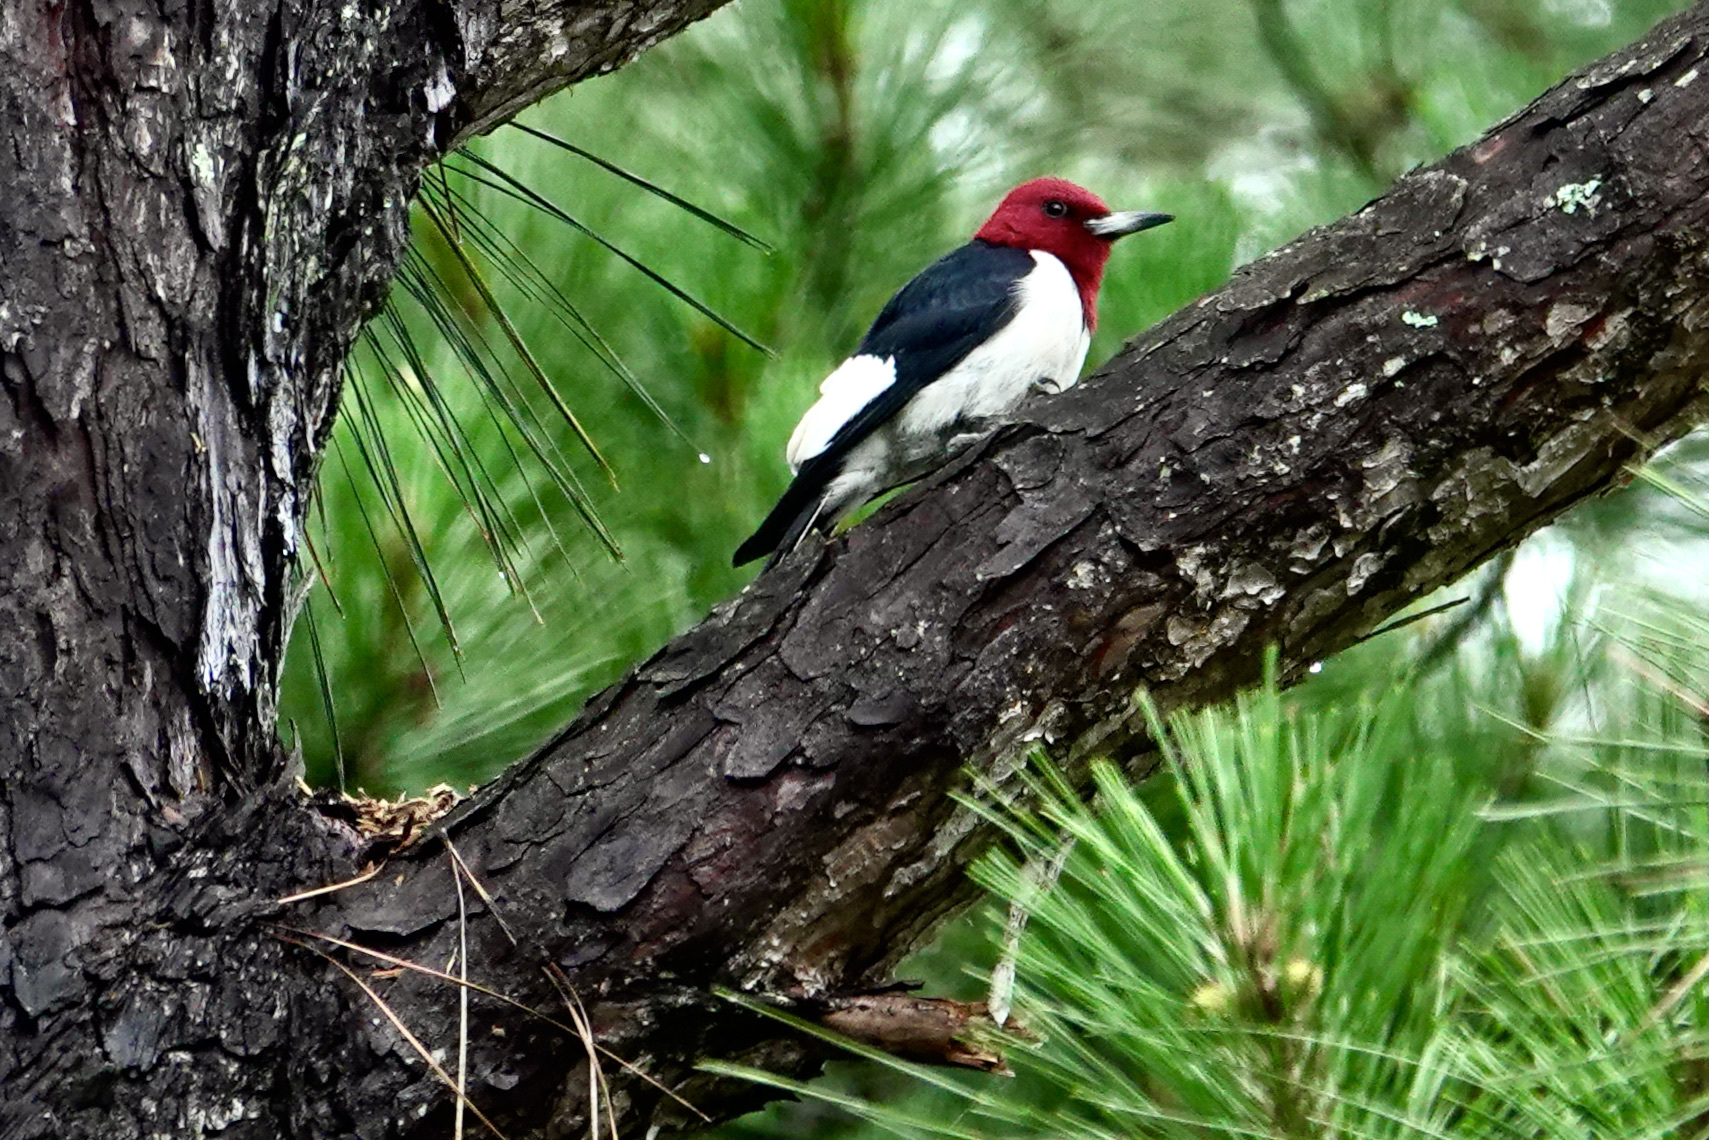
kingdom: Animalia
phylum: Chordata
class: Aves
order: Piciformes
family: Picidae
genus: Melanerpes
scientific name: Melanerpes erythrocephalus
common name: Red-headed woodpecker
